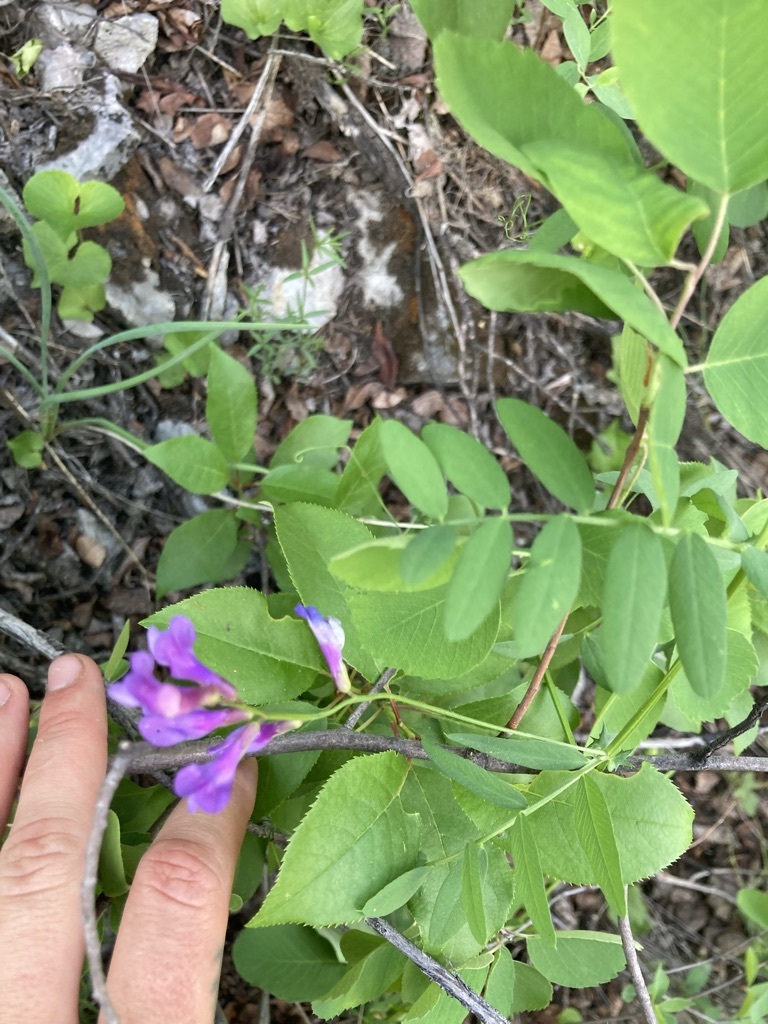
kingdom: Plantae
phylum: Tracheophyta
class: Magnoliopsida
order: Fabales
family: Fabaceae
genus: Vicia
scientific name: Vicia americana
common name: American vetch
